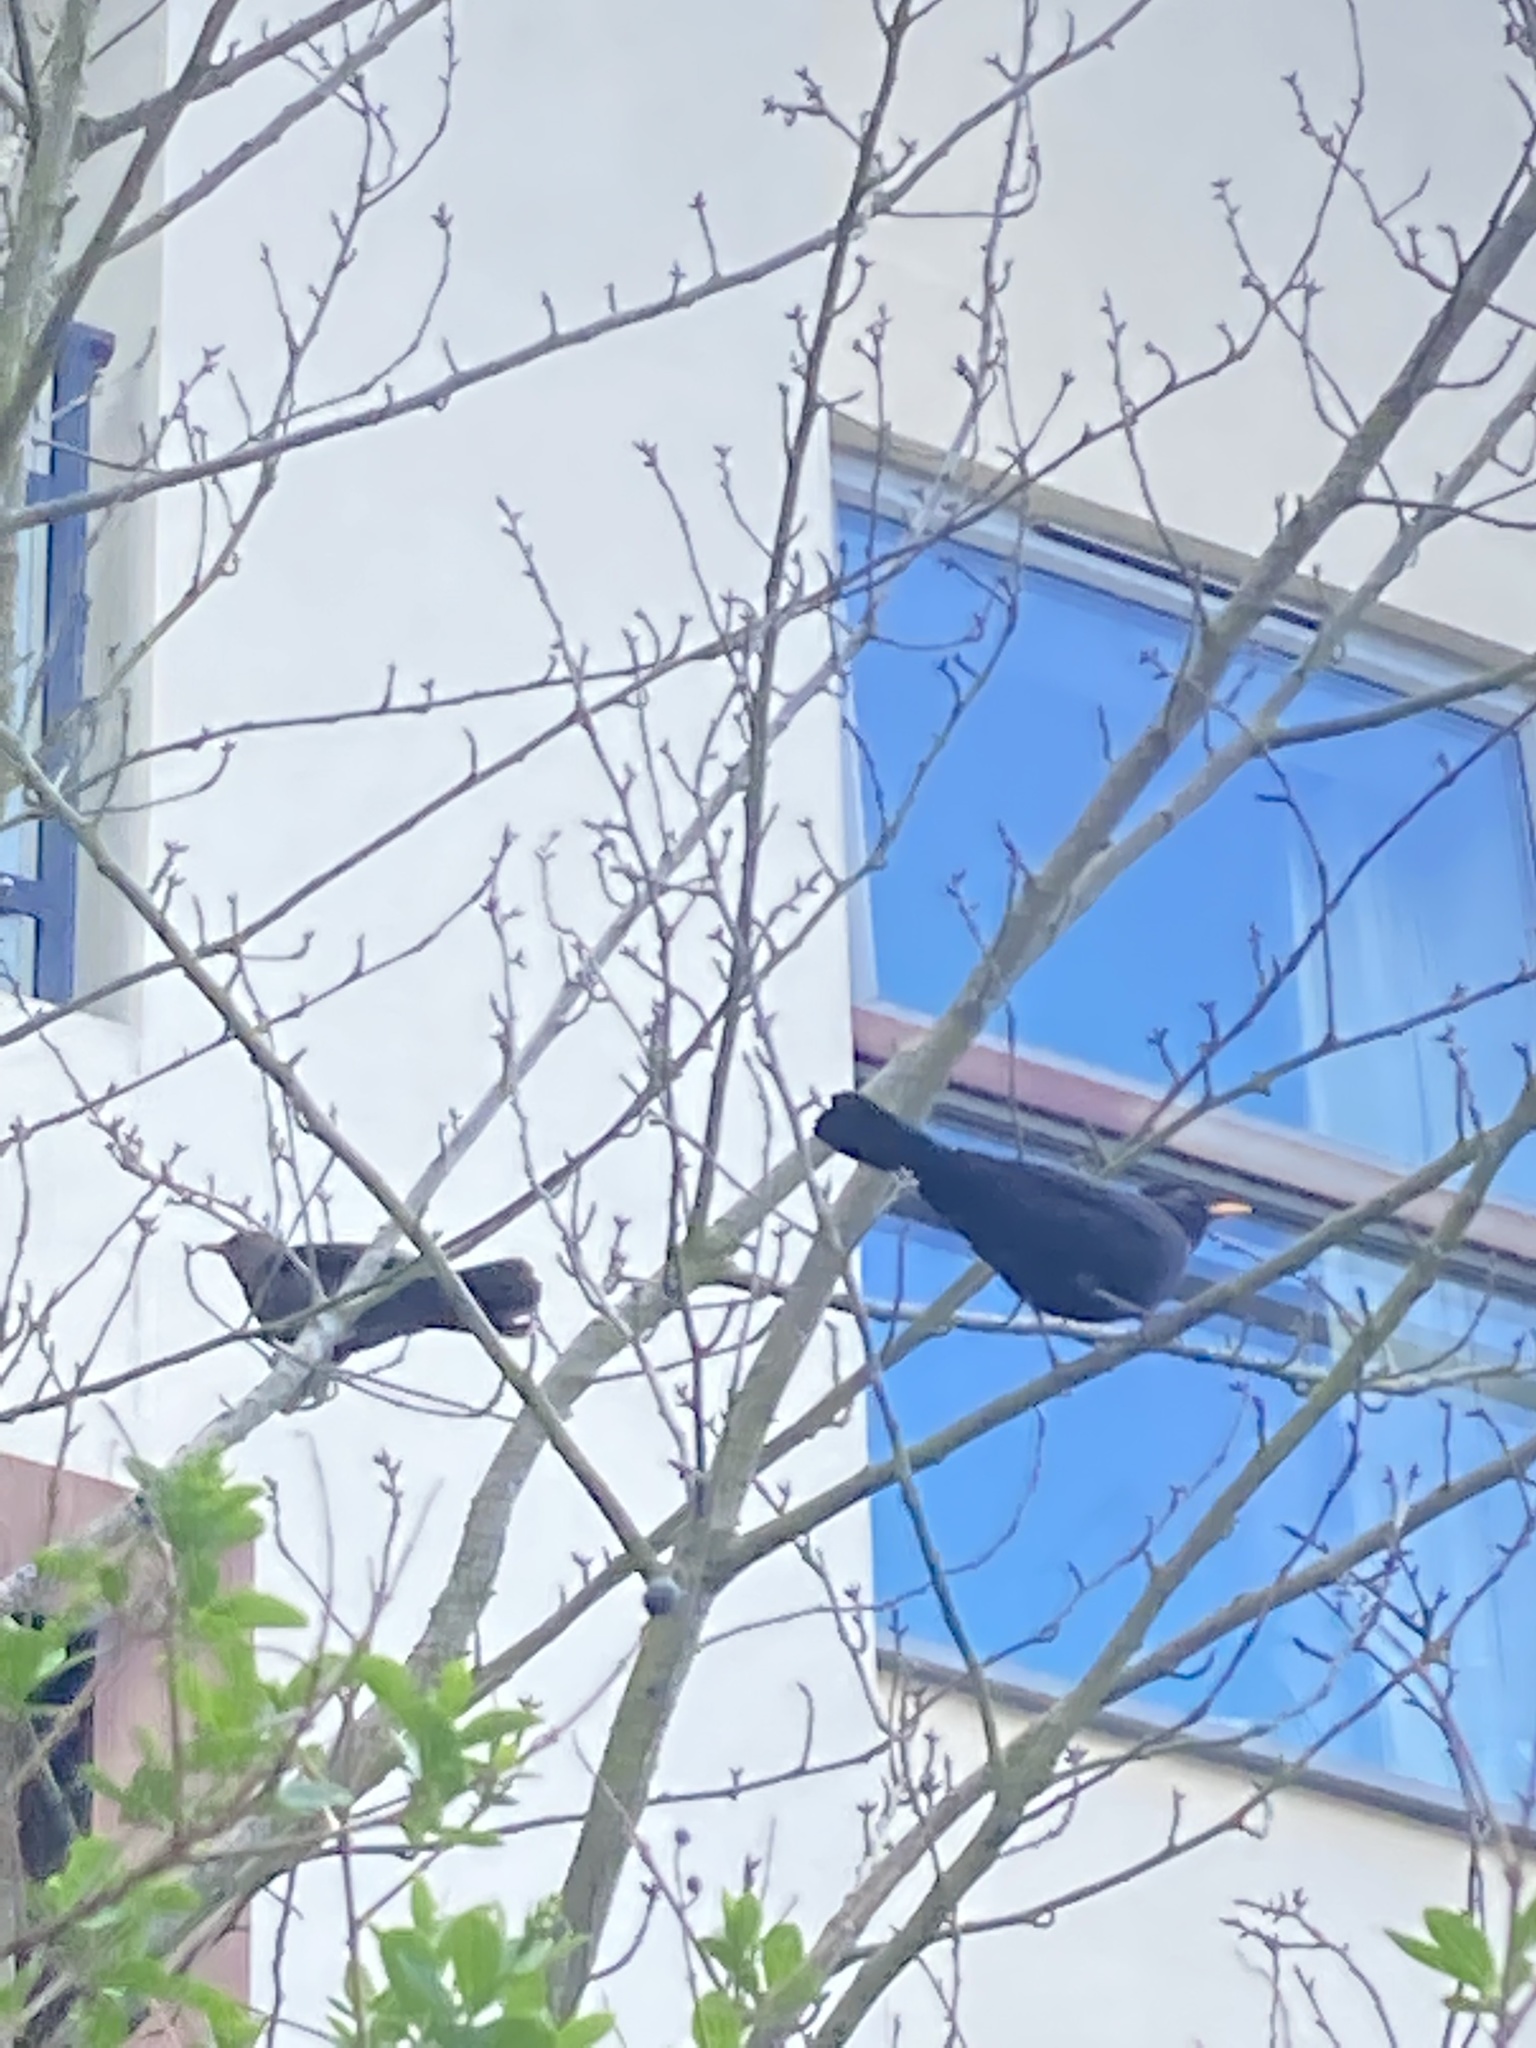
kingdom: Animalia
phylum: Chordata
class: Aves
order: Passeriformes
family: Turdidae
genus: Turdus
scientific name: Turdus merula
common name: Common blackbird
